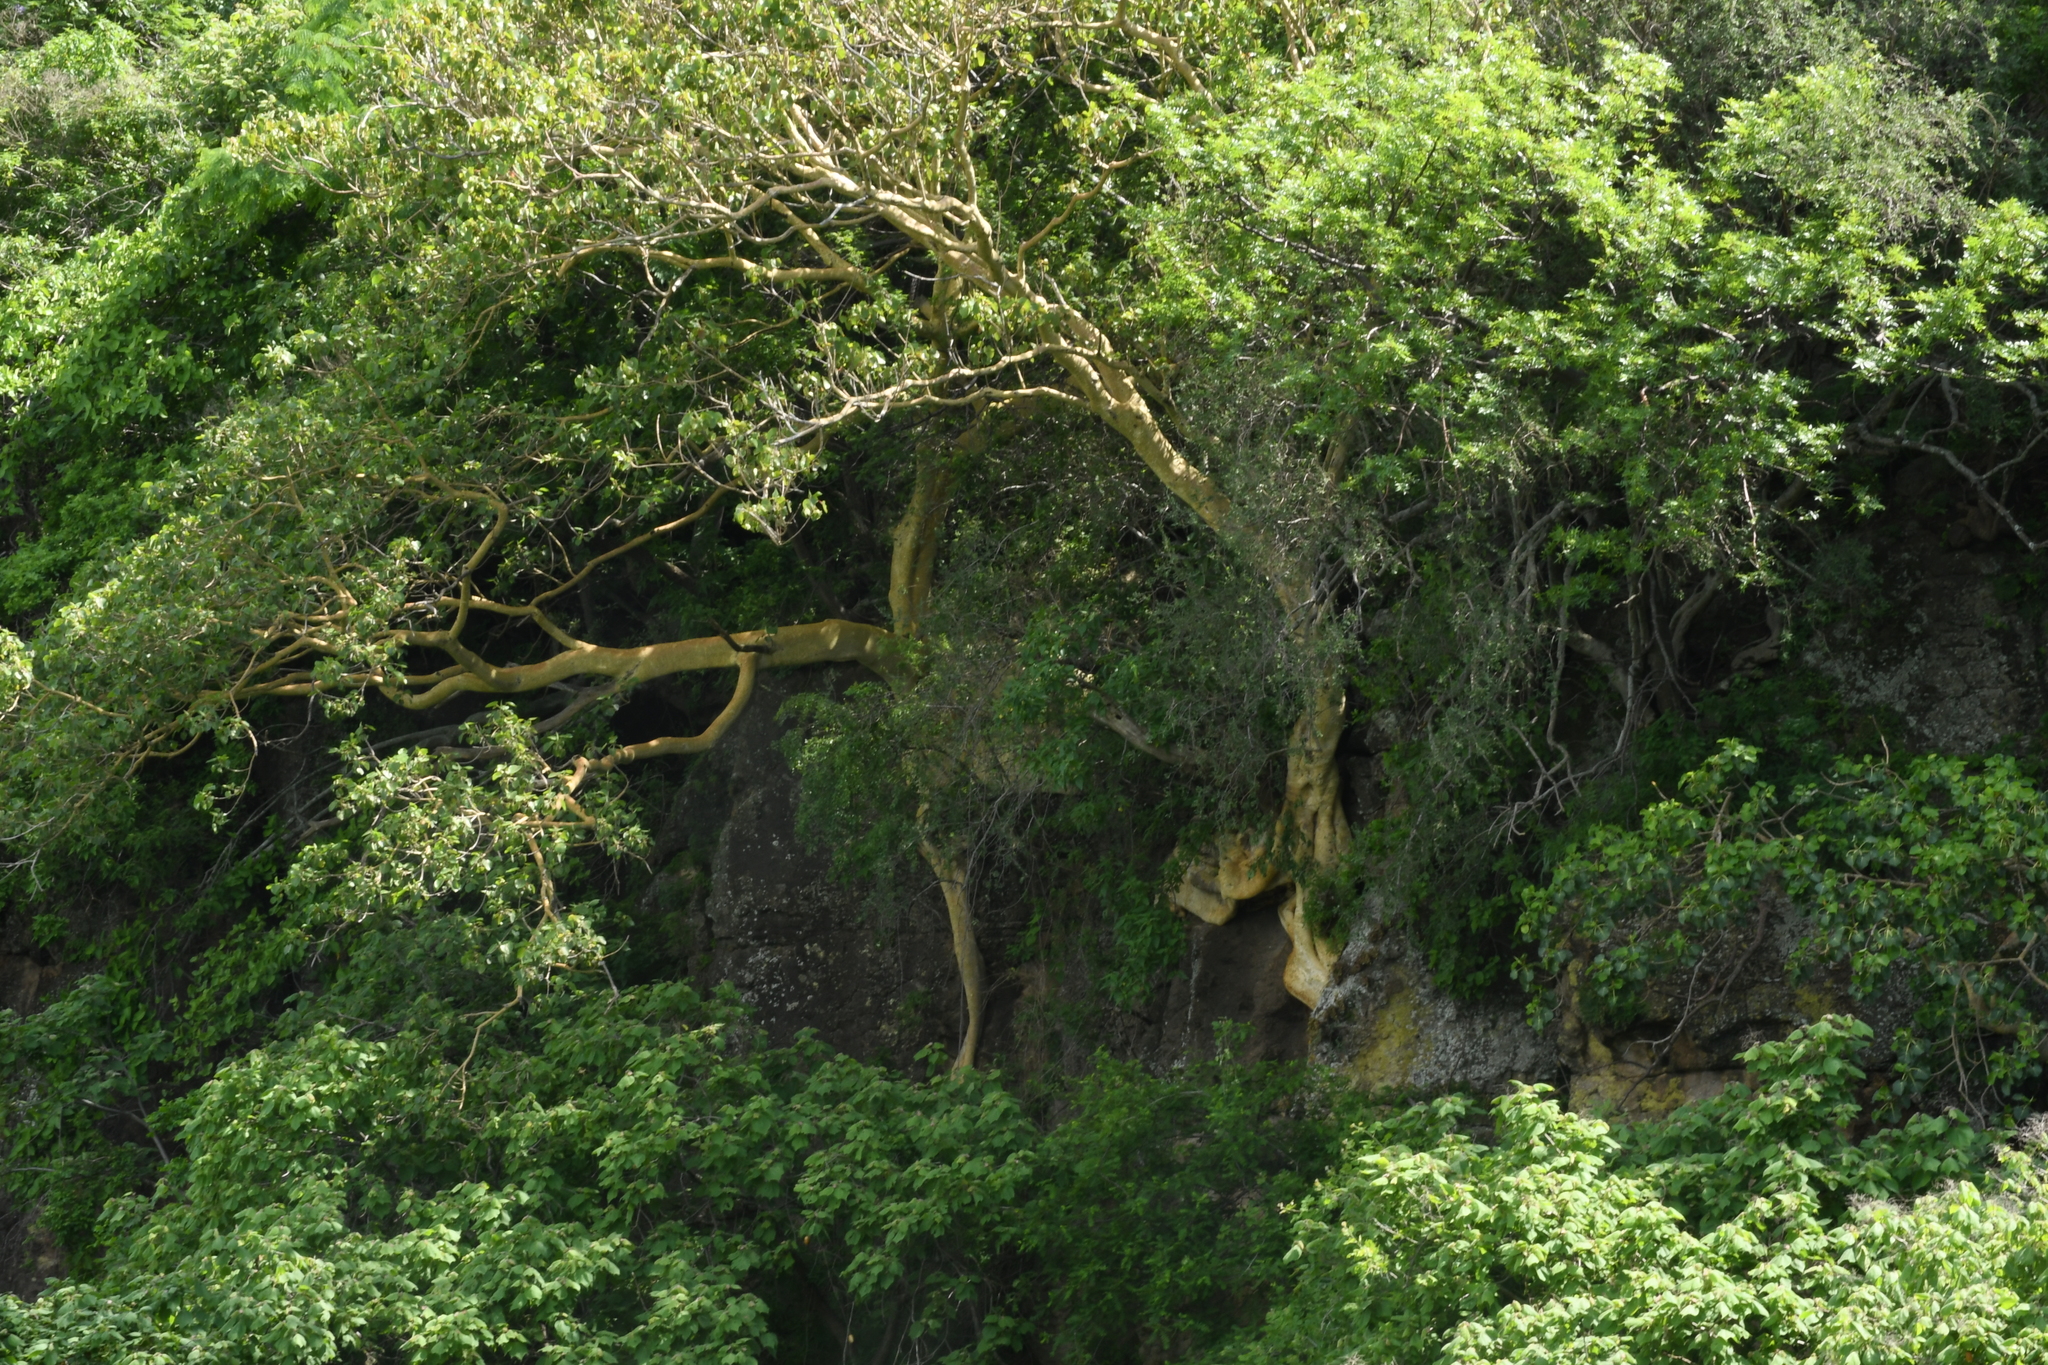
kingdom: Plantae
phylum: Tracheophyta
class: Magnoliopsida
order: Rosales
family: Moraceae
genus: Ficus
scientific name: Ficus petiolaris
